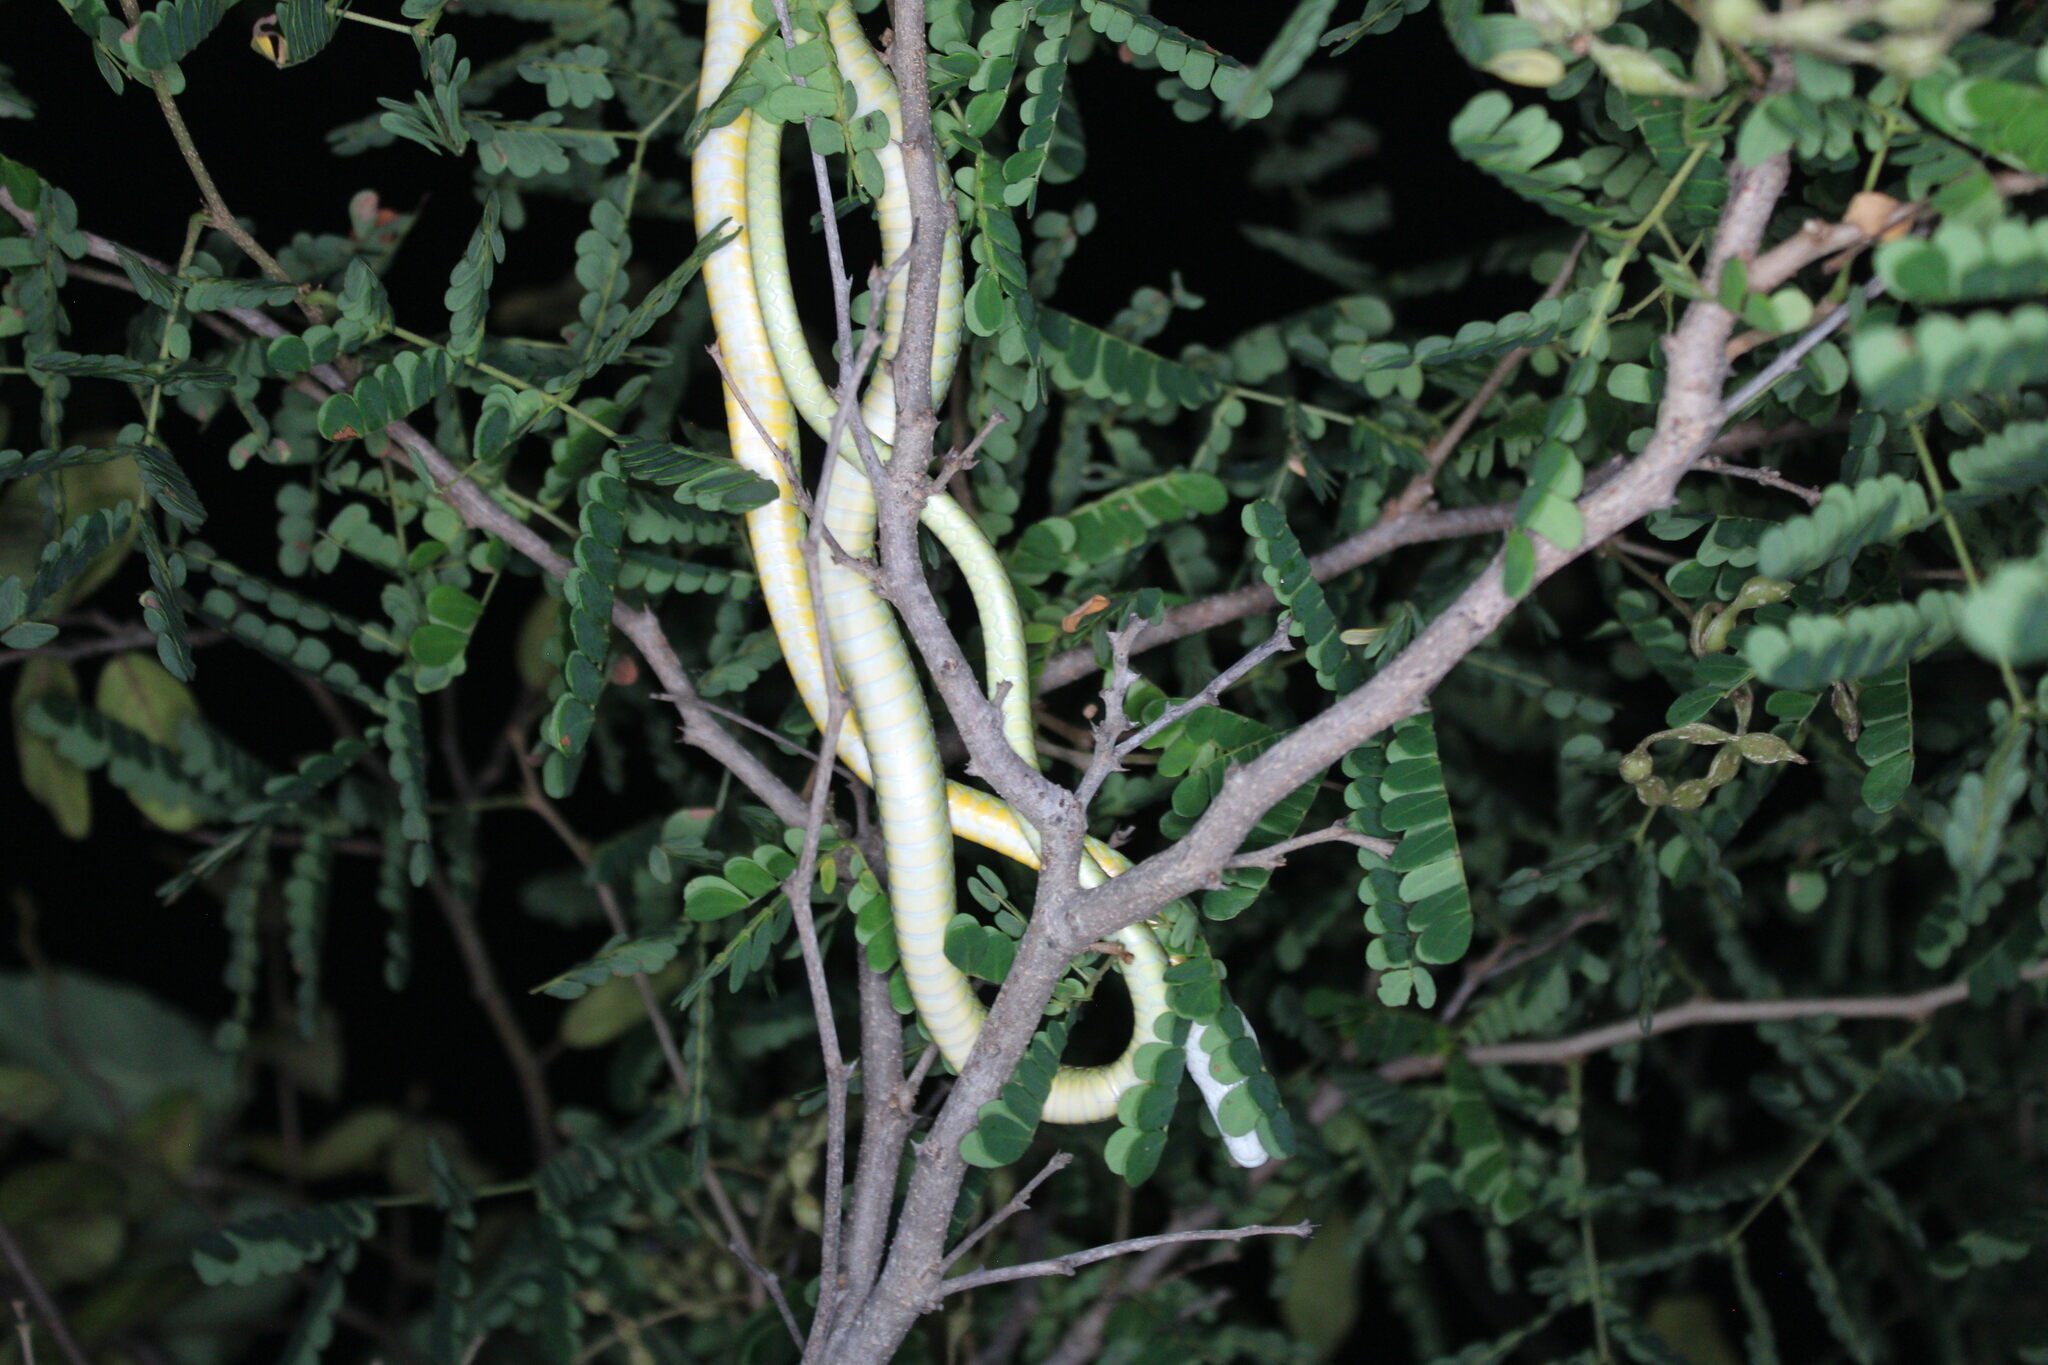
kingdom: Animalia
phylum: Chordata
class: Squamata
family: Colubridae
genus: Leptophis
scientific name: Leptophis diplotropis
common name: Pacific coast parrot snake
